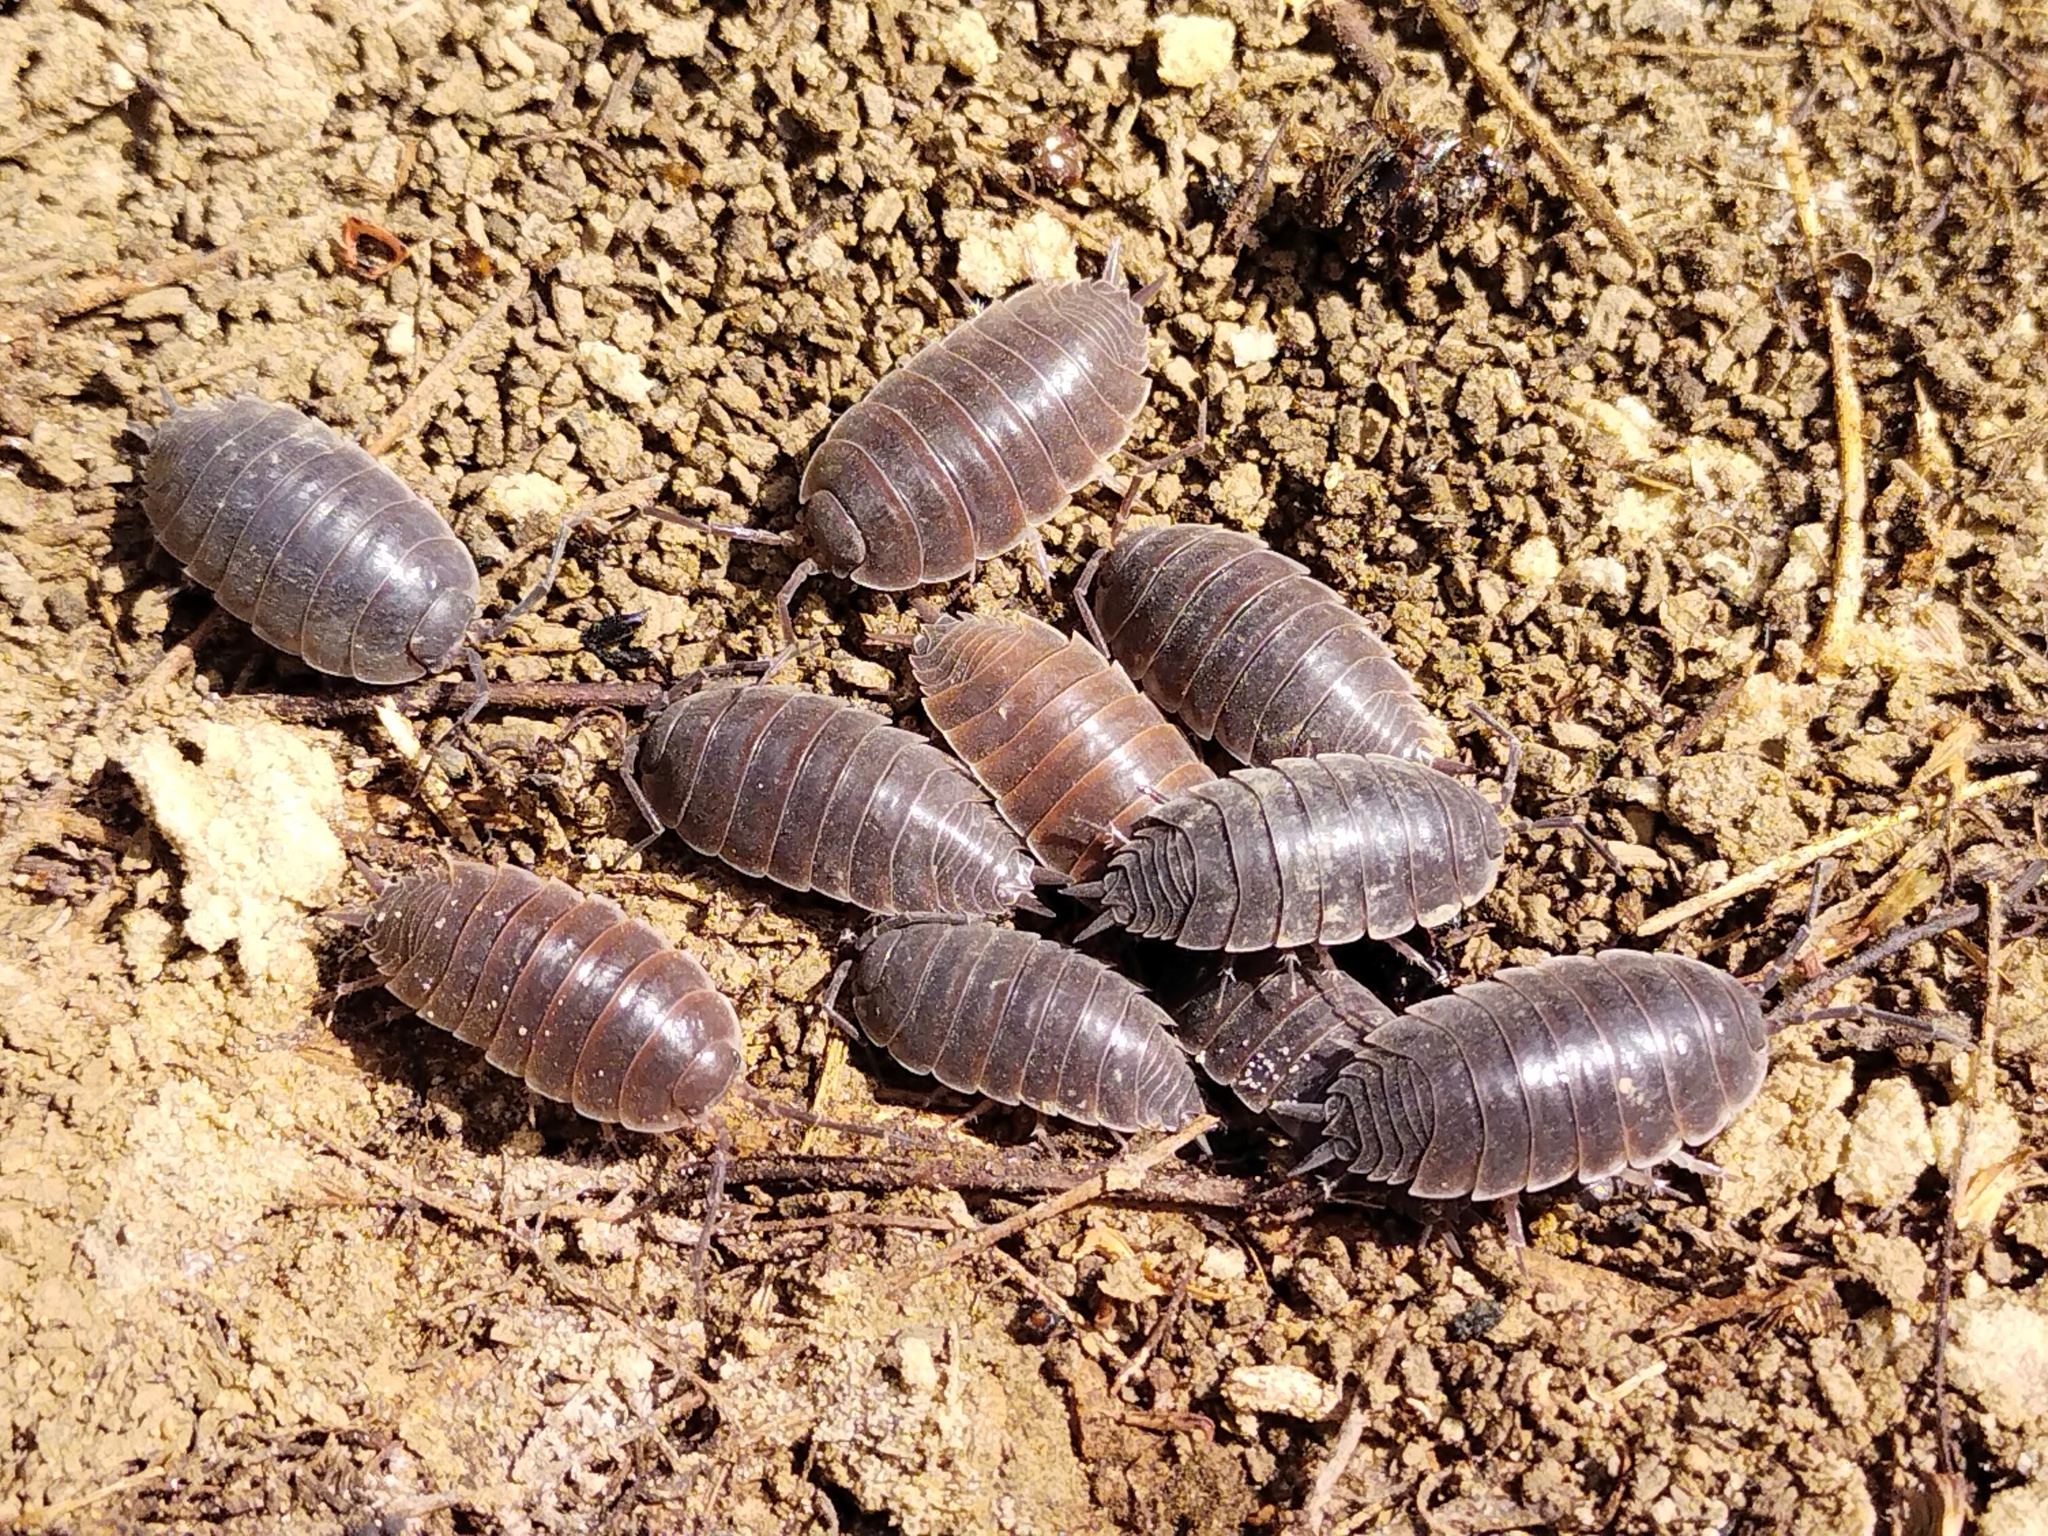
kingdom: Animalia
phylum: Arthropoda
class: Malacostraca
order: Isopoda
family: Agnaridae
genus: Protracheoniscus
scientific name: Protracheoniscus major
